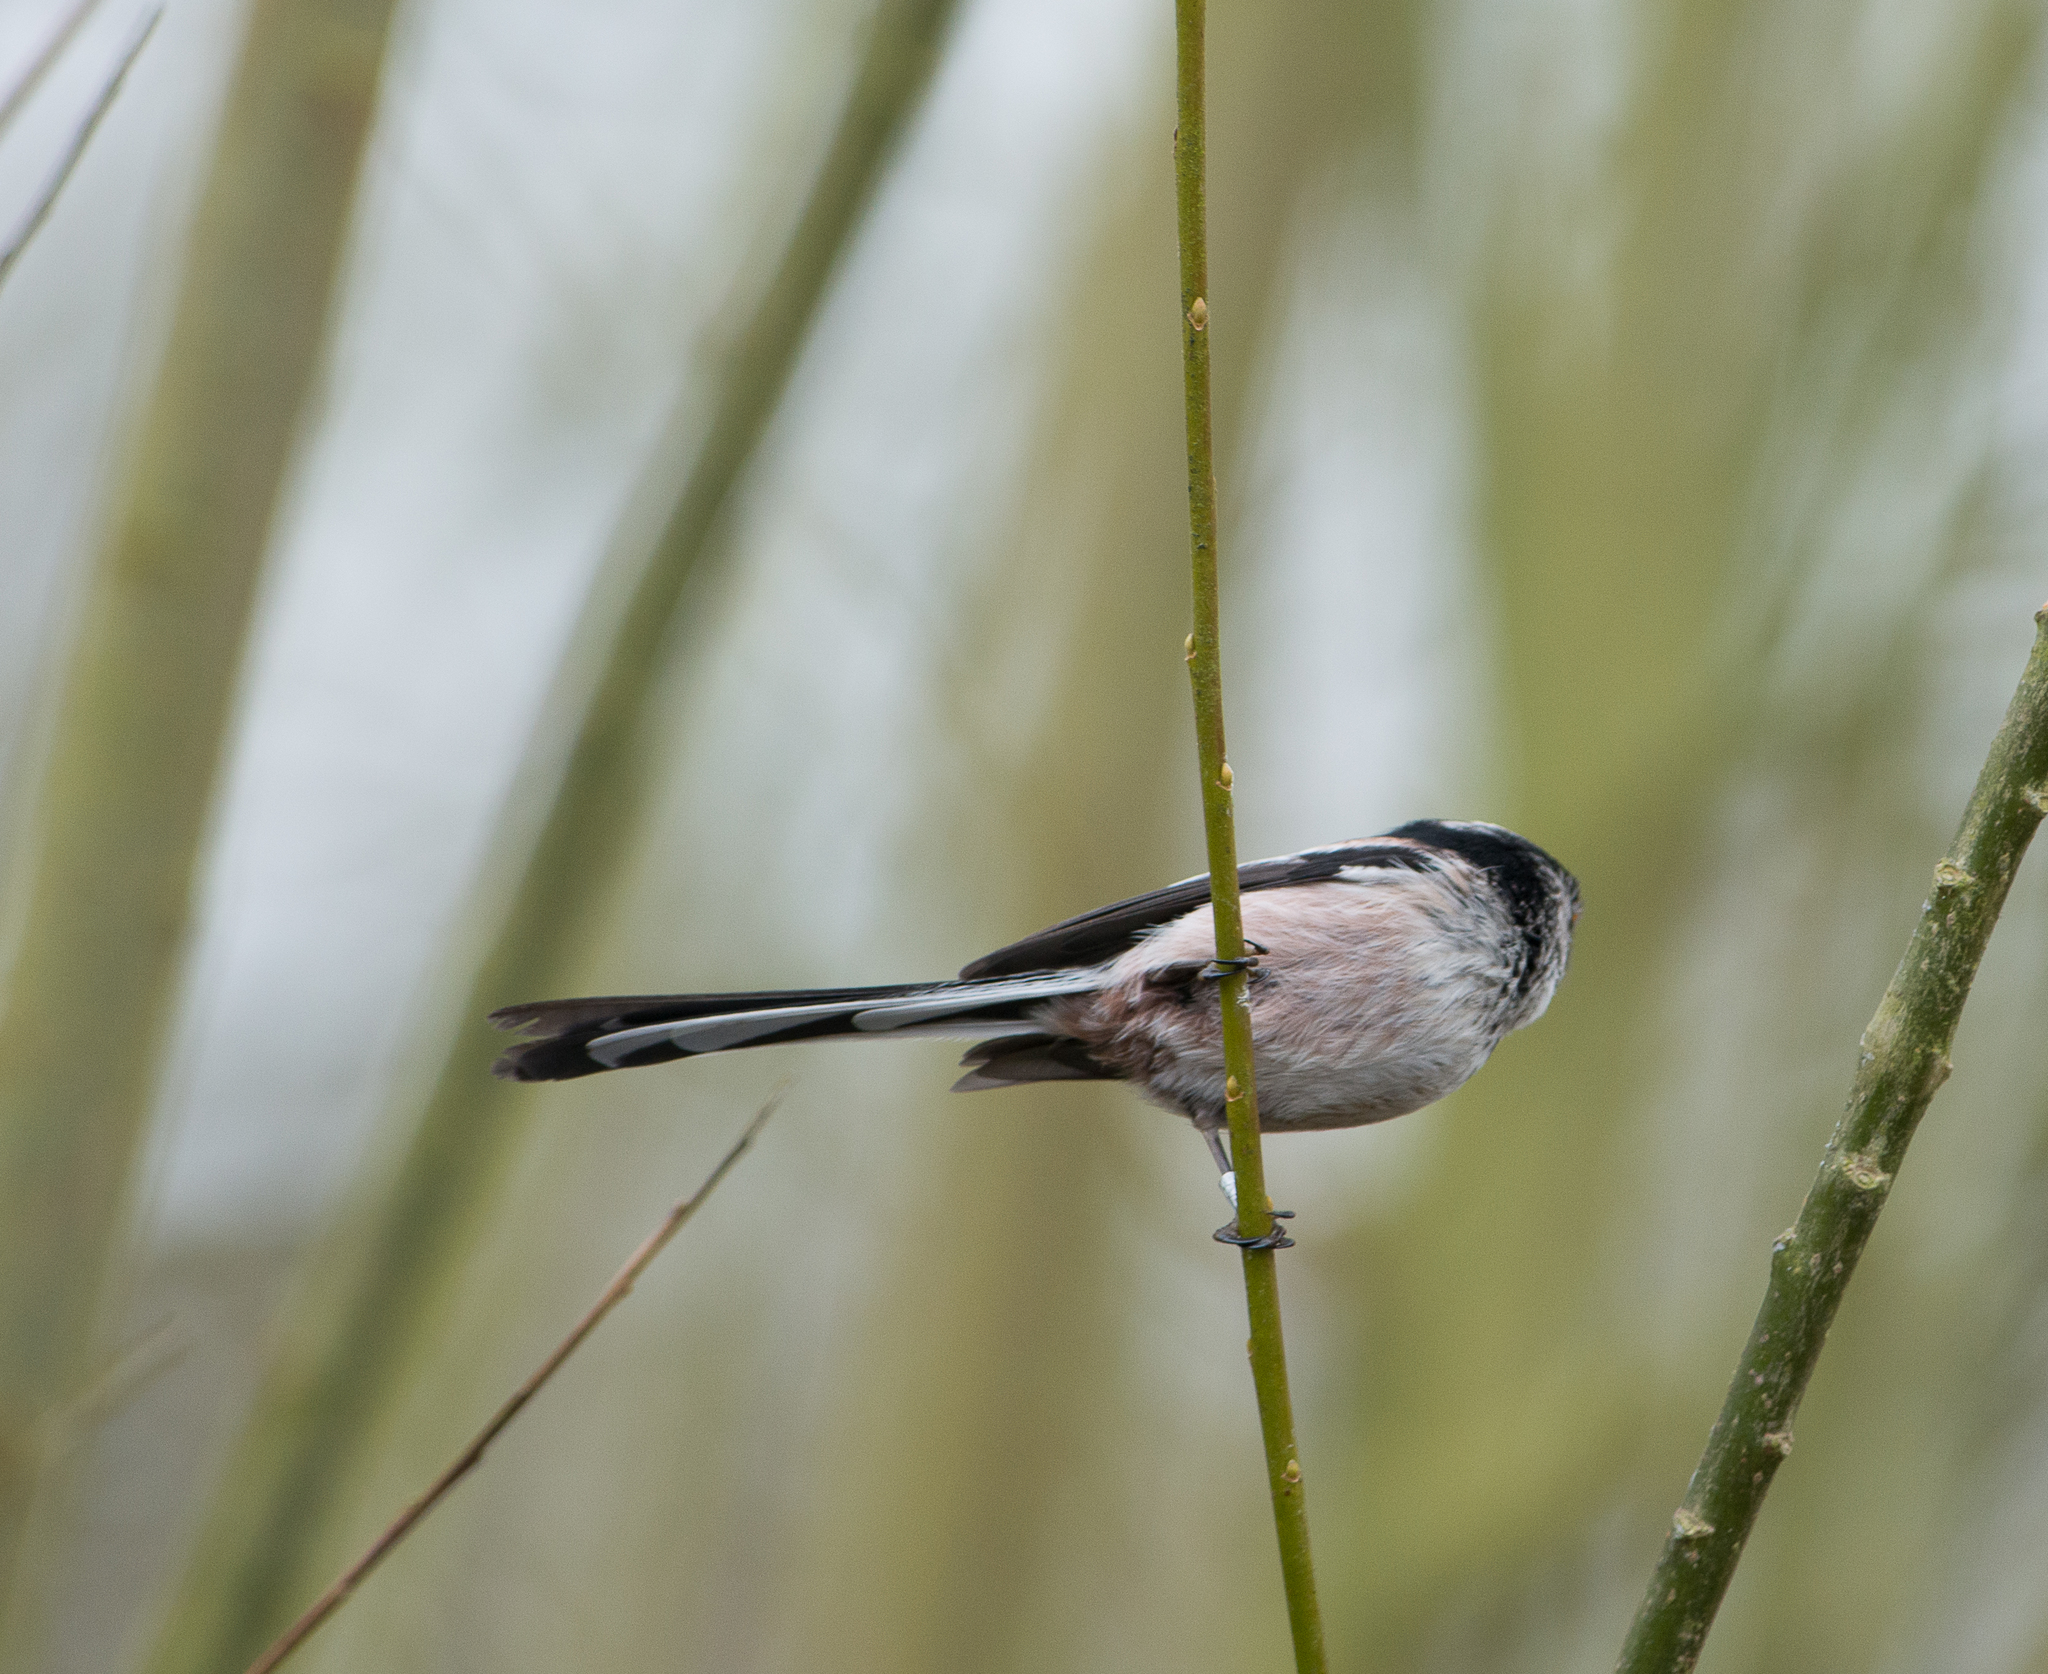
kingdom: Animalia
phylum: Chordata
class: Aves
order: Passeriformes
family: Aegithalidae
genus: Aegithalos
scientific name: Aegithalos caudatus
